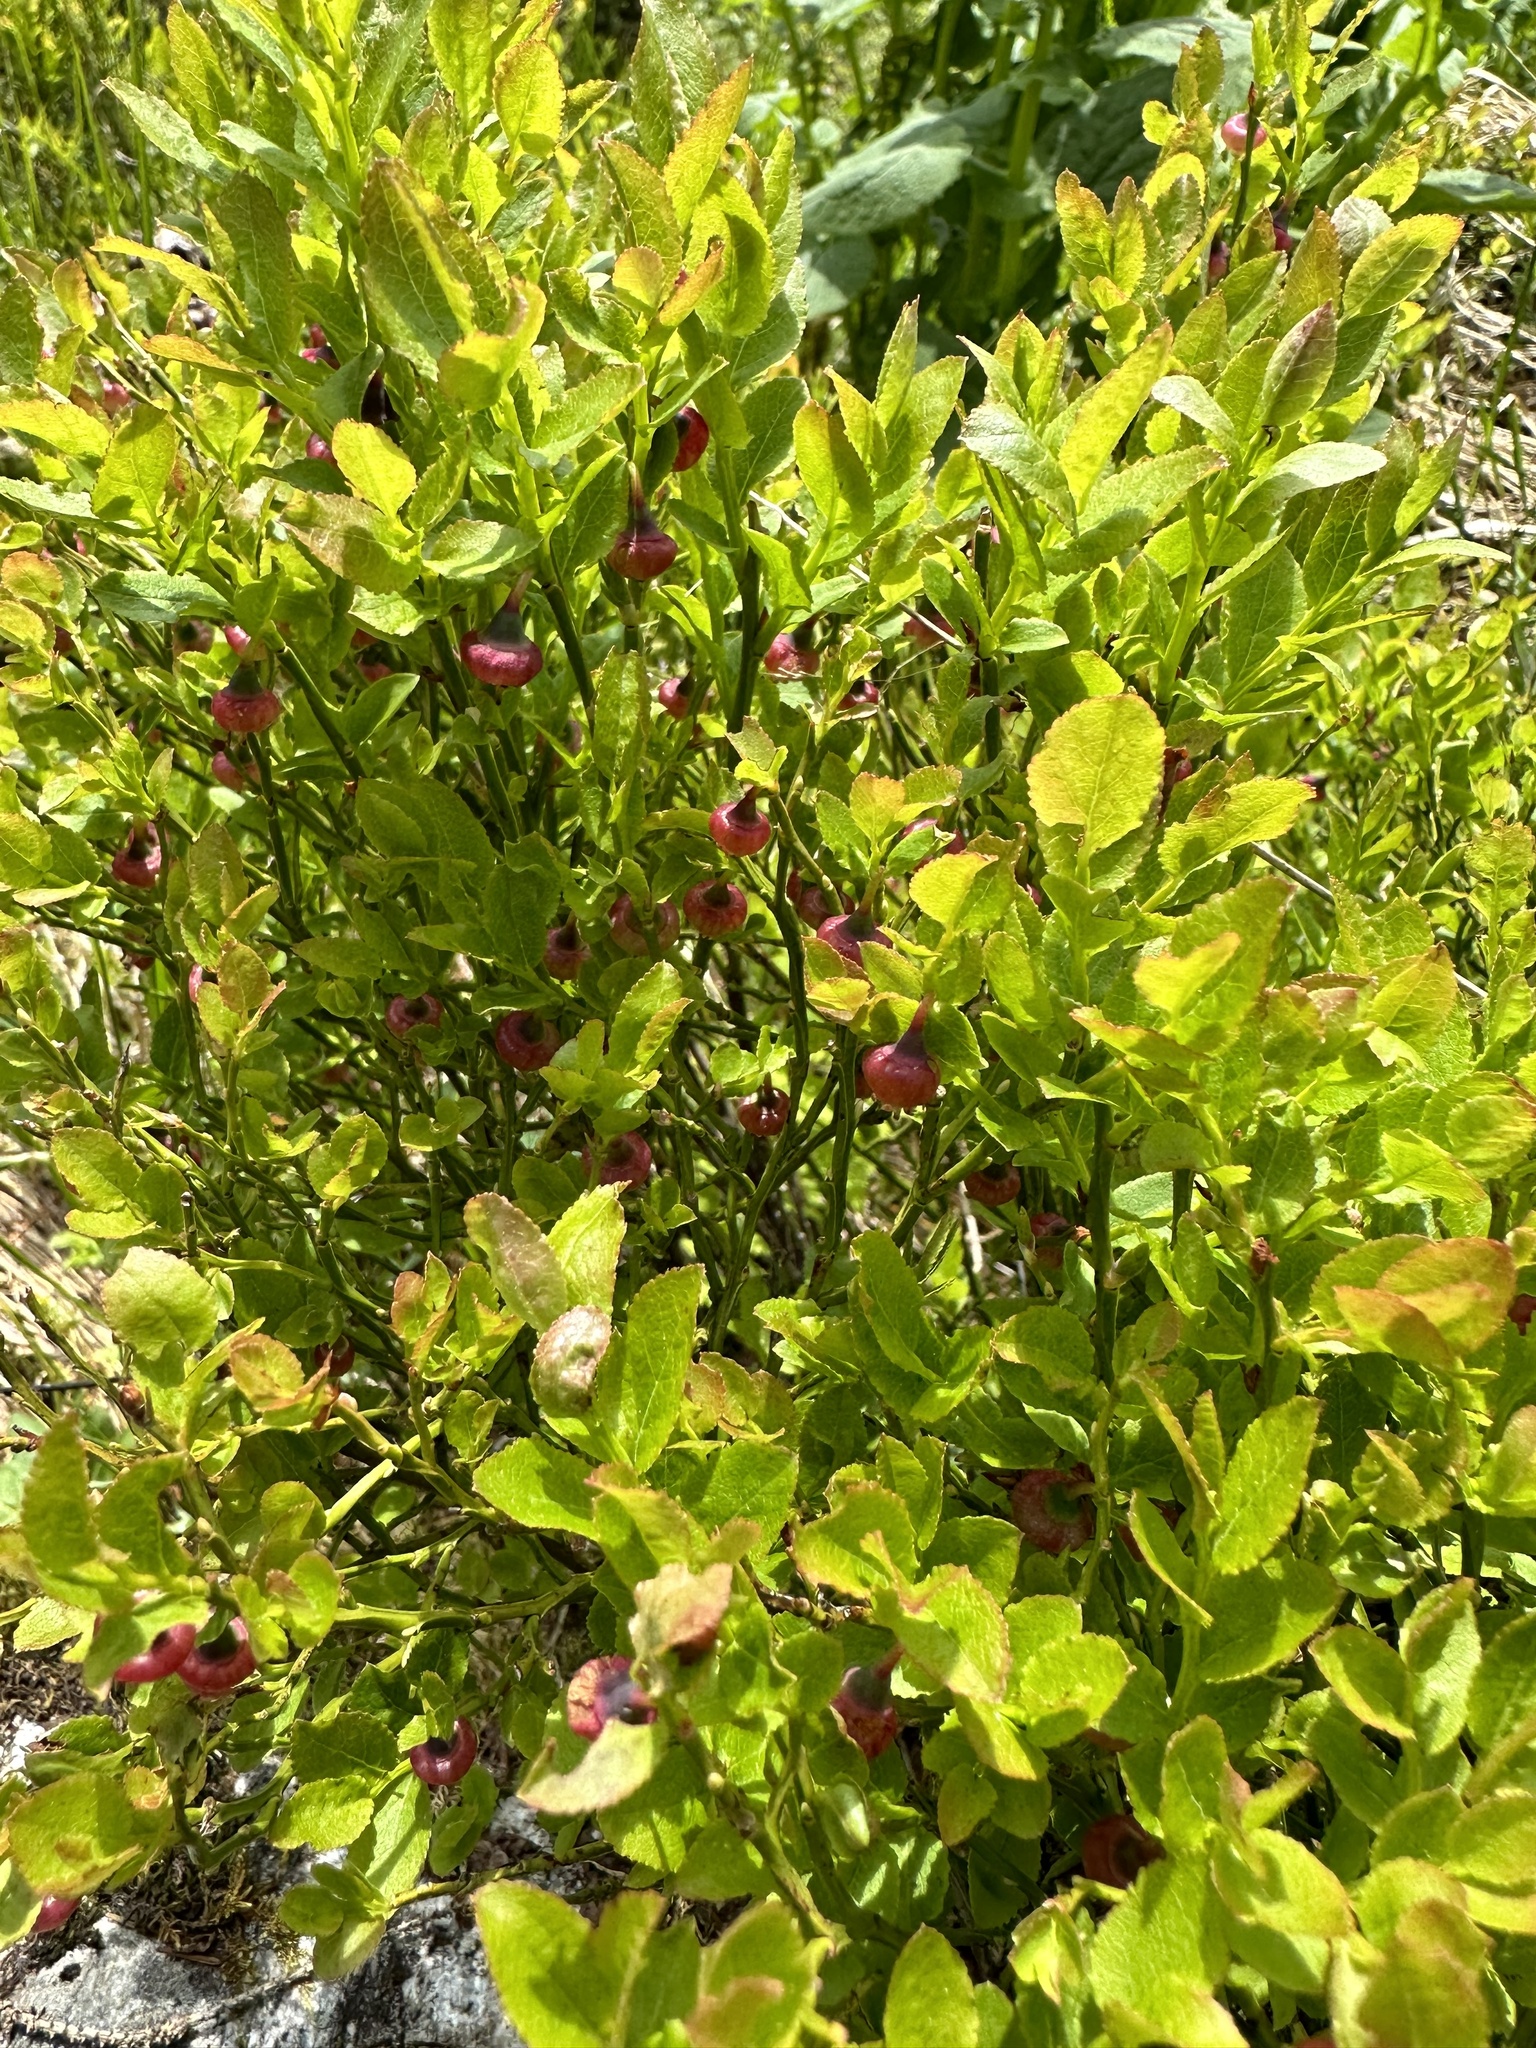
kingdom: Plantae
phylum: Tracheophyta
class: Magnoliopsida
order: Ericales
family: Ericaceae
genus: Vaccinium
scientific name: Vaccinium myrtillus
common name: Bilberry
